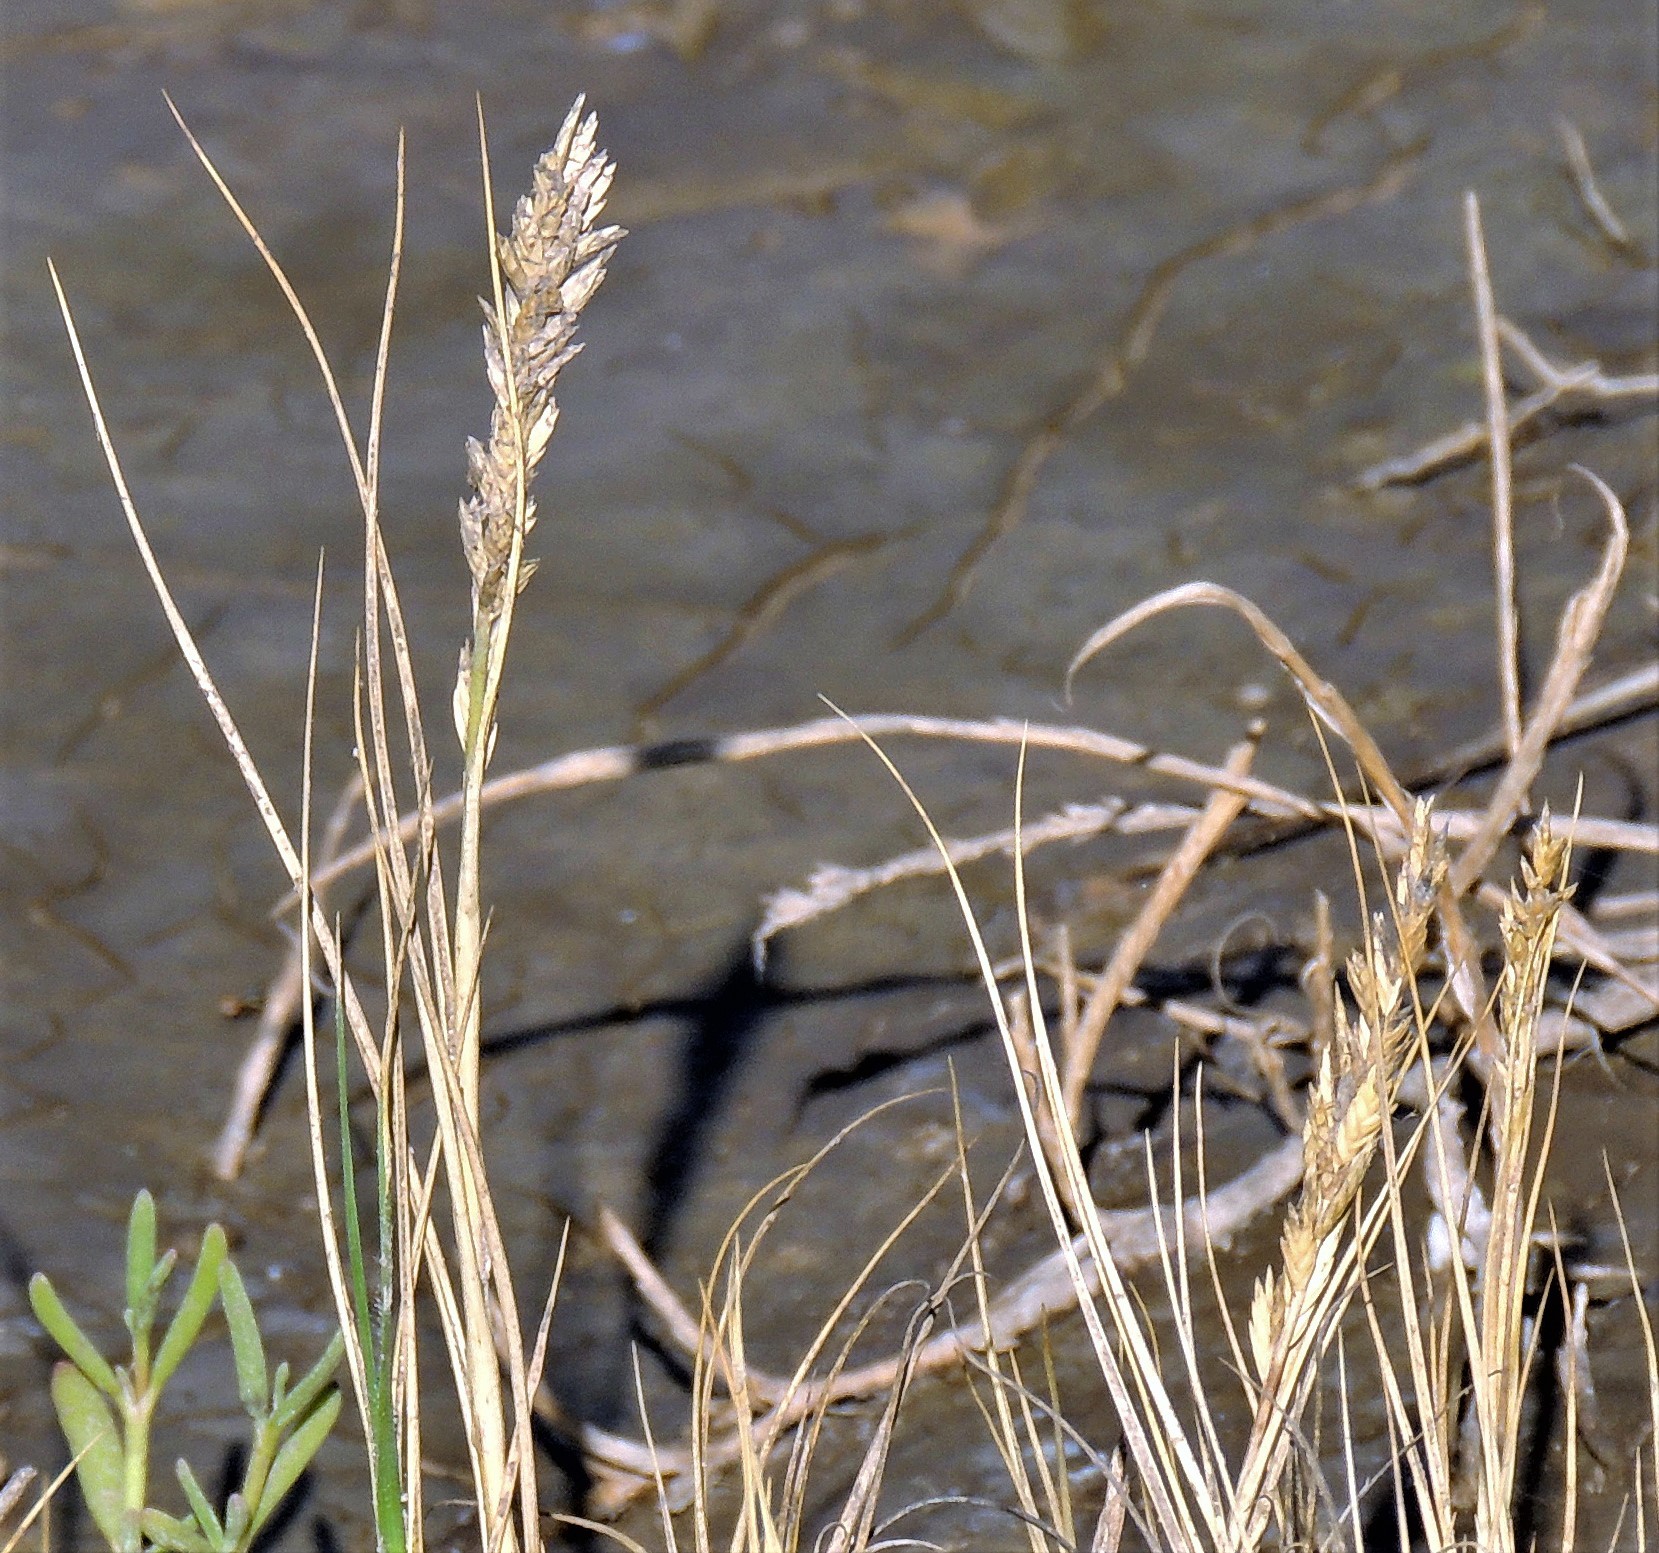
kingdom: Plantae
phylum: Tracheophyta
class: Liliopsida
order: Poales
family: Poaceae
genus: Distichlis
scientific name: Distichlis spicata
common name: Saltgrass
